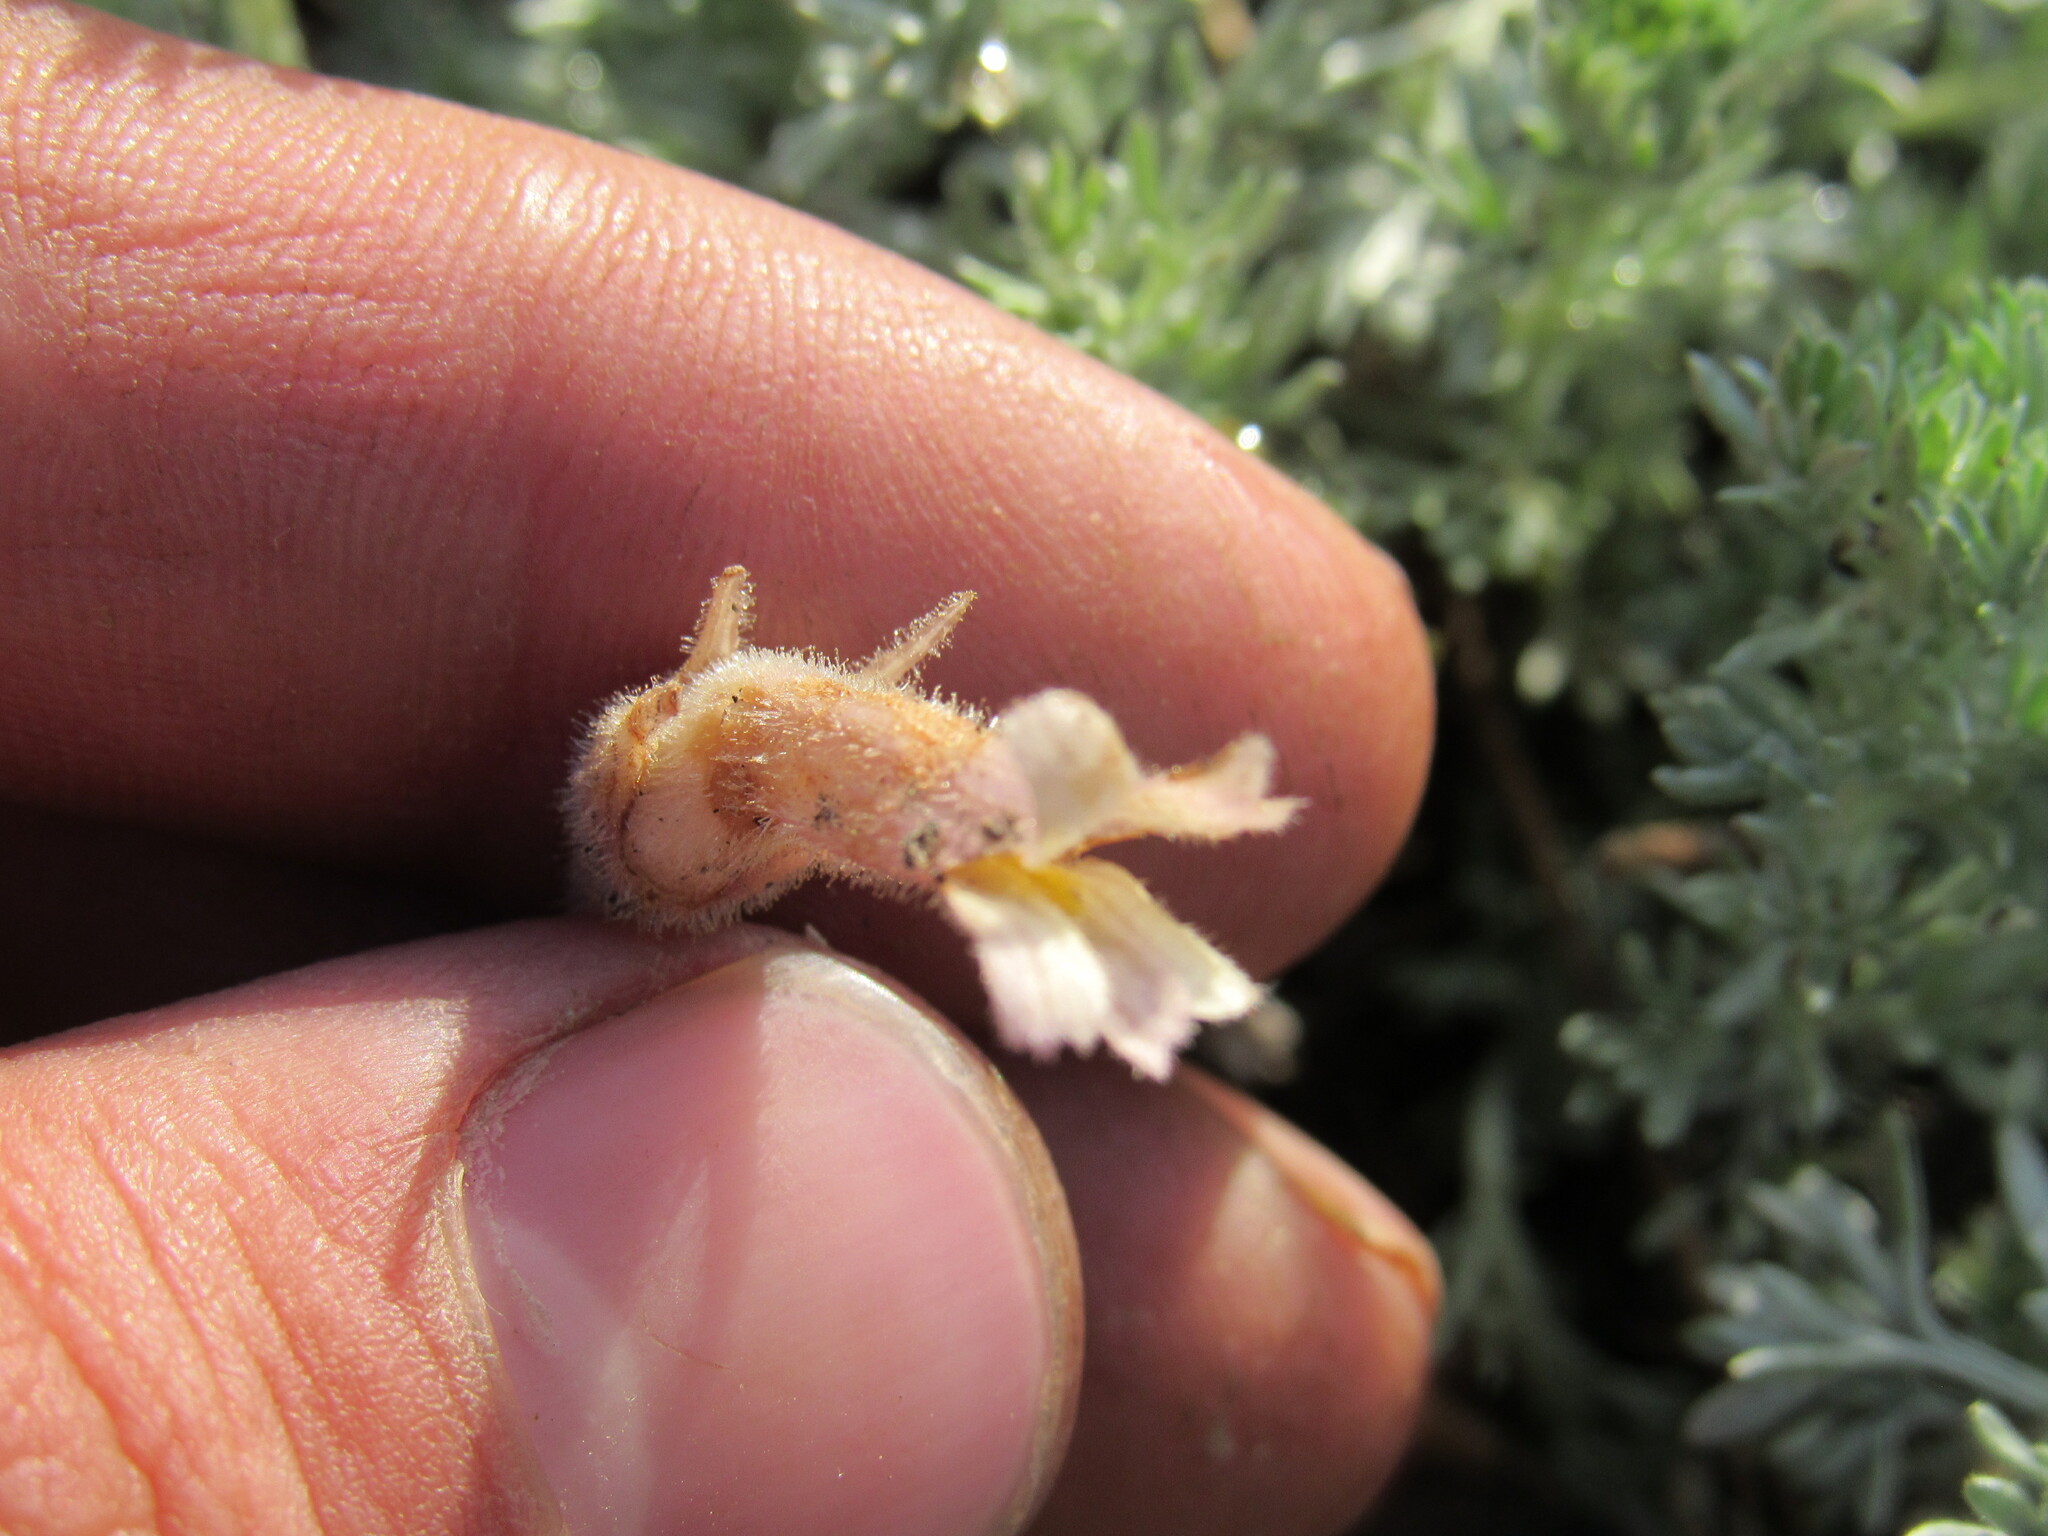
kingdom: Plantae
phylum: Tracheophyta
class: Magnoliopsida
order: Lamiales
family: Orobanchaceae
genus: Aphyllon
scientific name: Aphyllon fasciculatum
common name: Clustered broomrape
